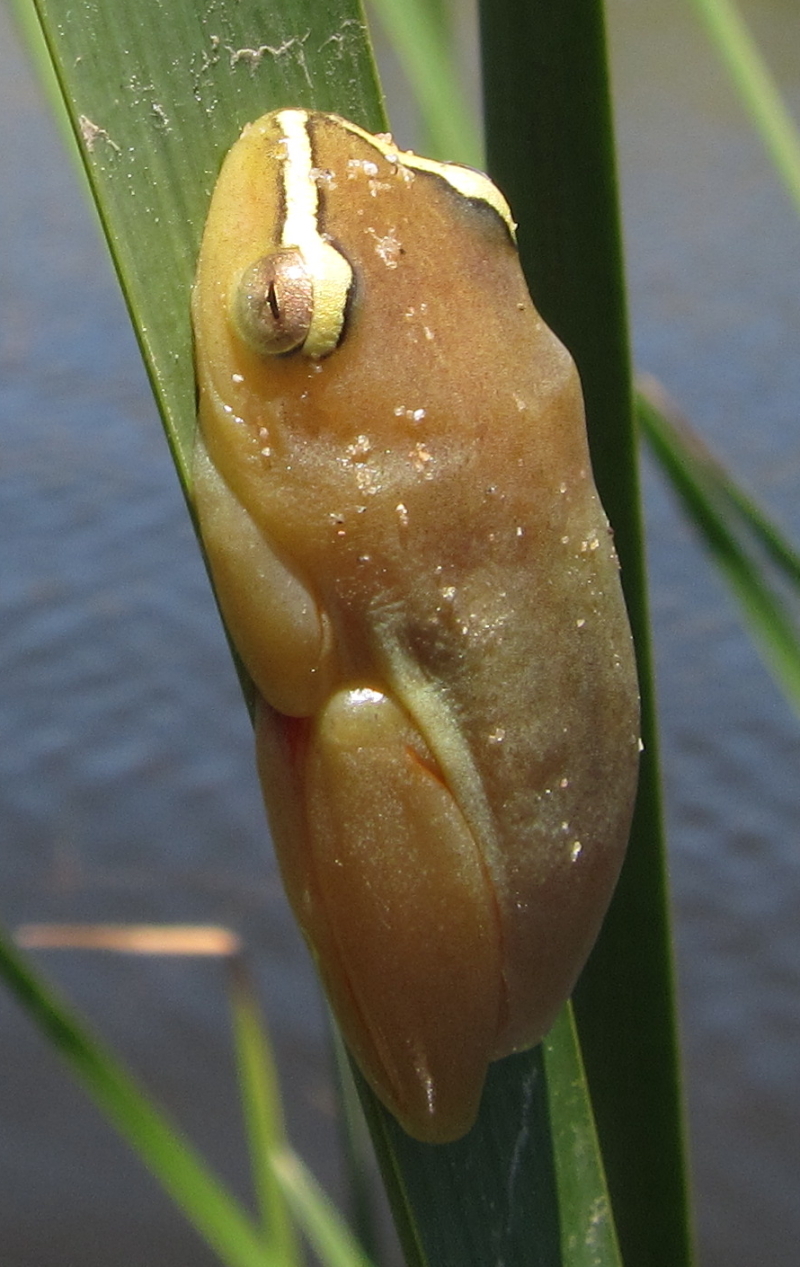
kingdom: Animalia
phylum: Chordata
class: Amphibia
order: Anura
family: Hyperoliidae
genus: Hyperolius
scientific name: Hyperolius argus
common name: Argus reed frog
